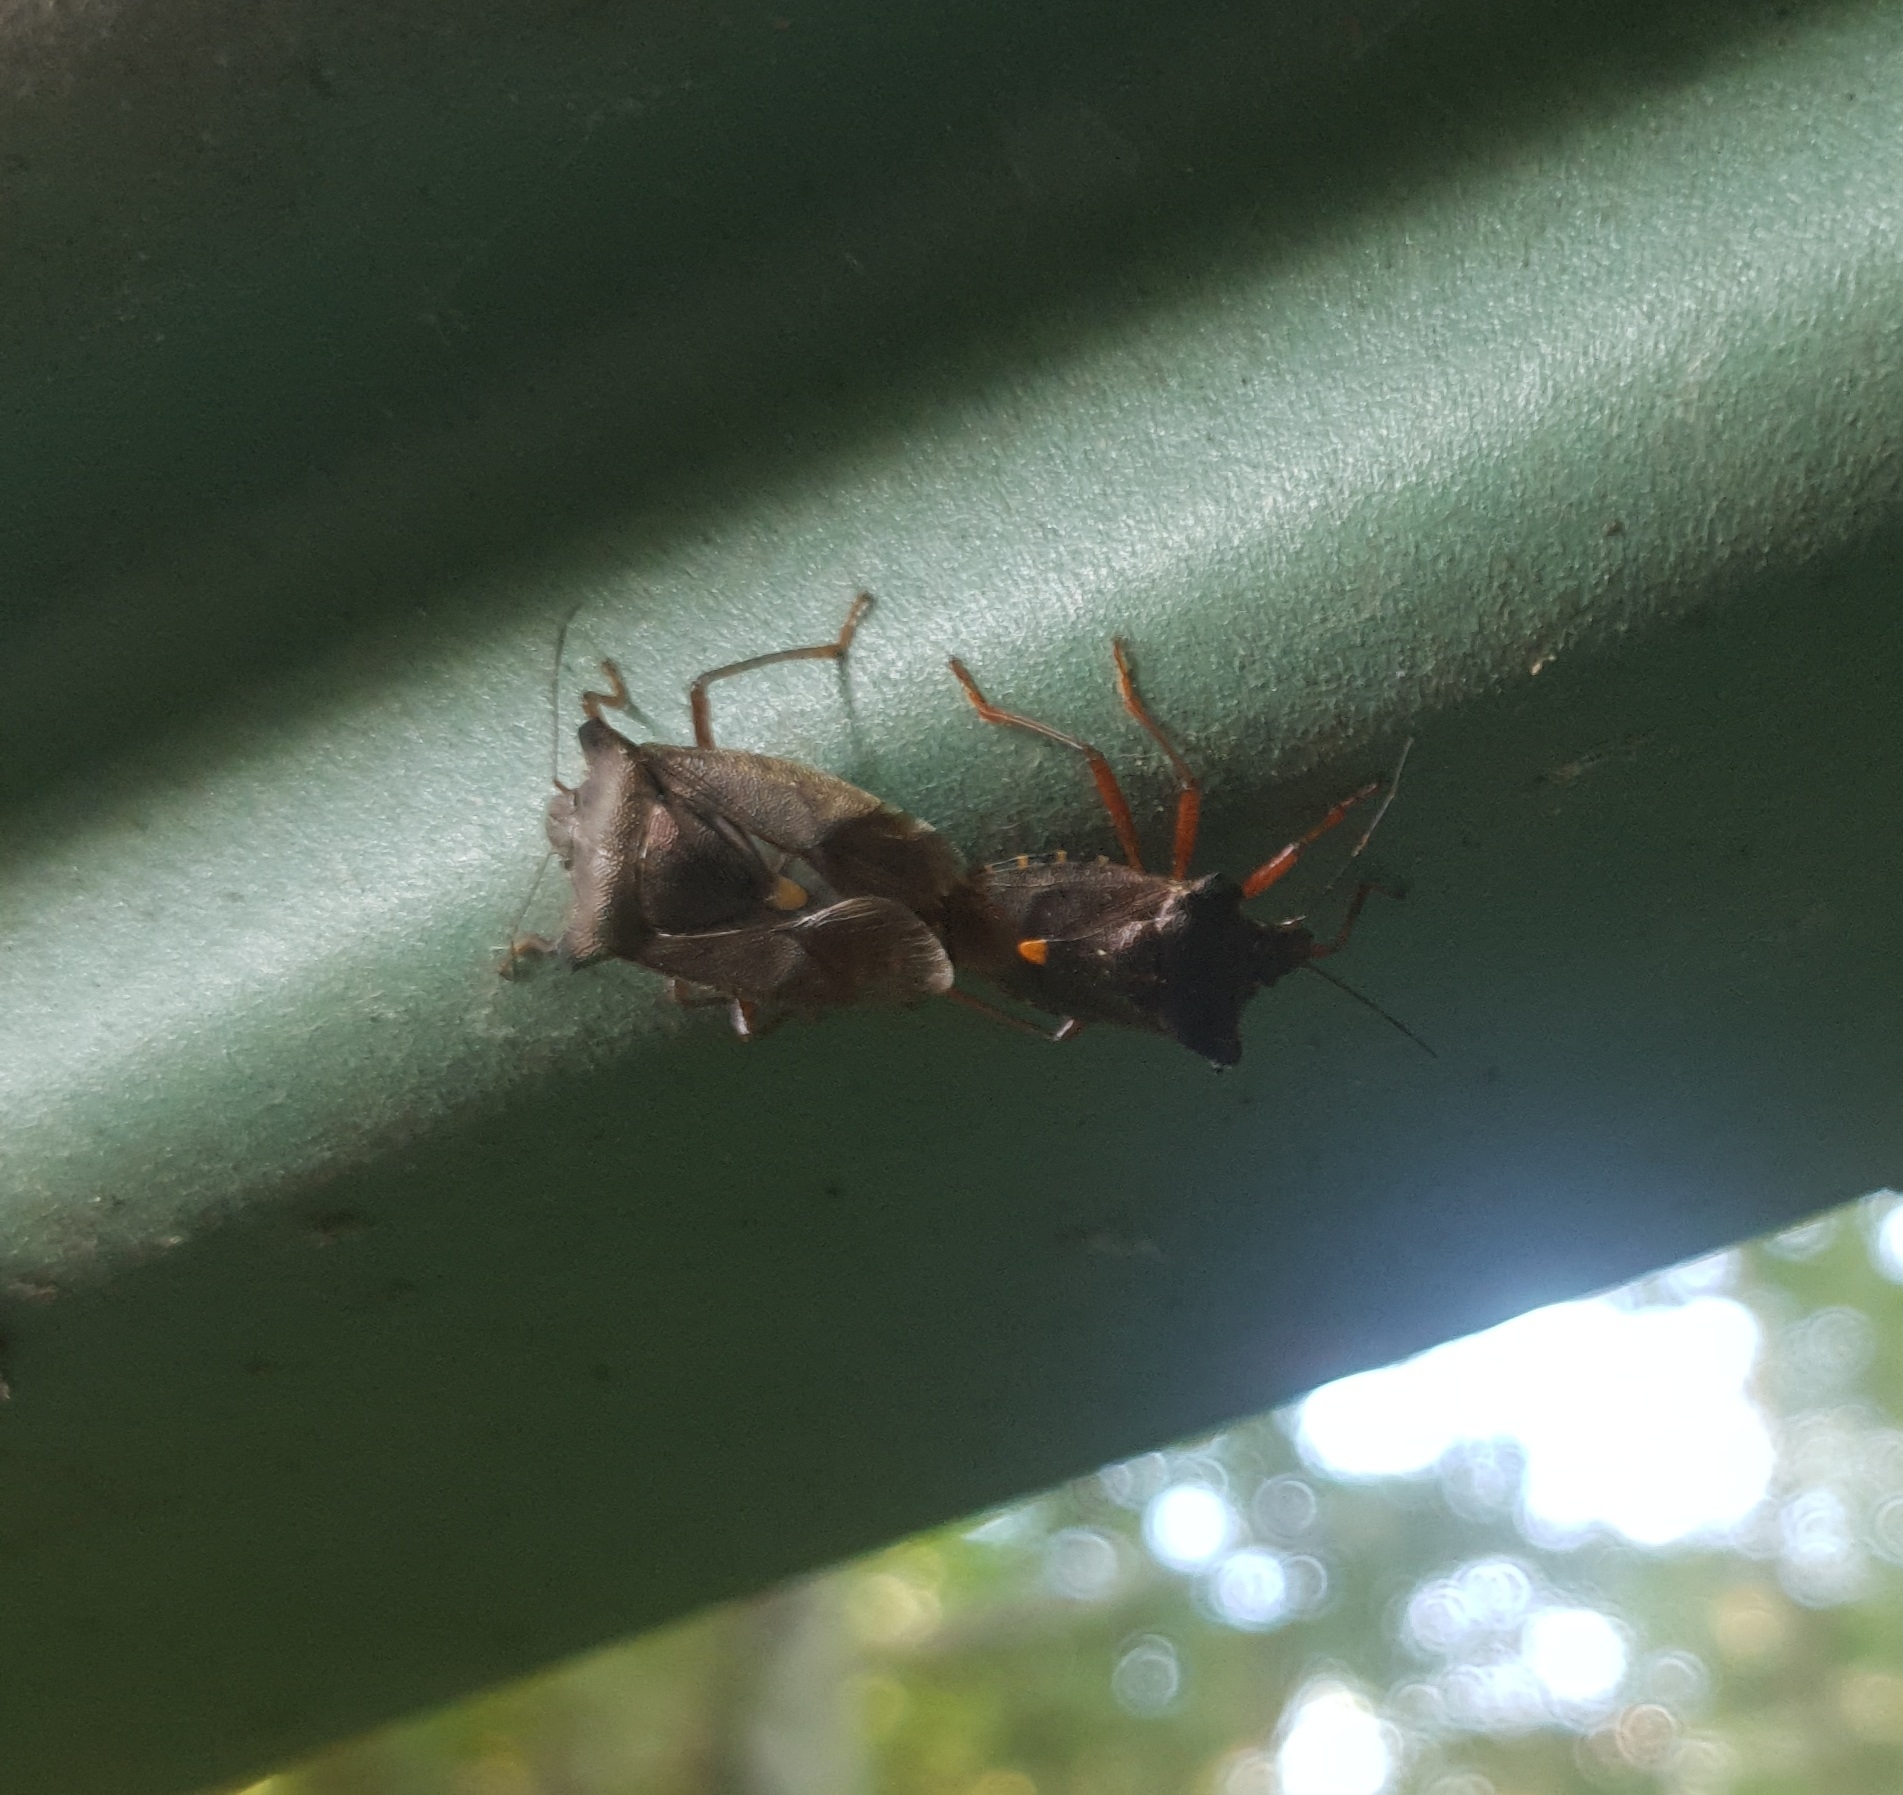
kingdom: Animalia
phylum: Arthropoda
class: Insecta
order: Hemiptera
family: Pentatomidae
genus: Pentatoma
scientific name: Pentatoma rufipes
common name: Forest bug
